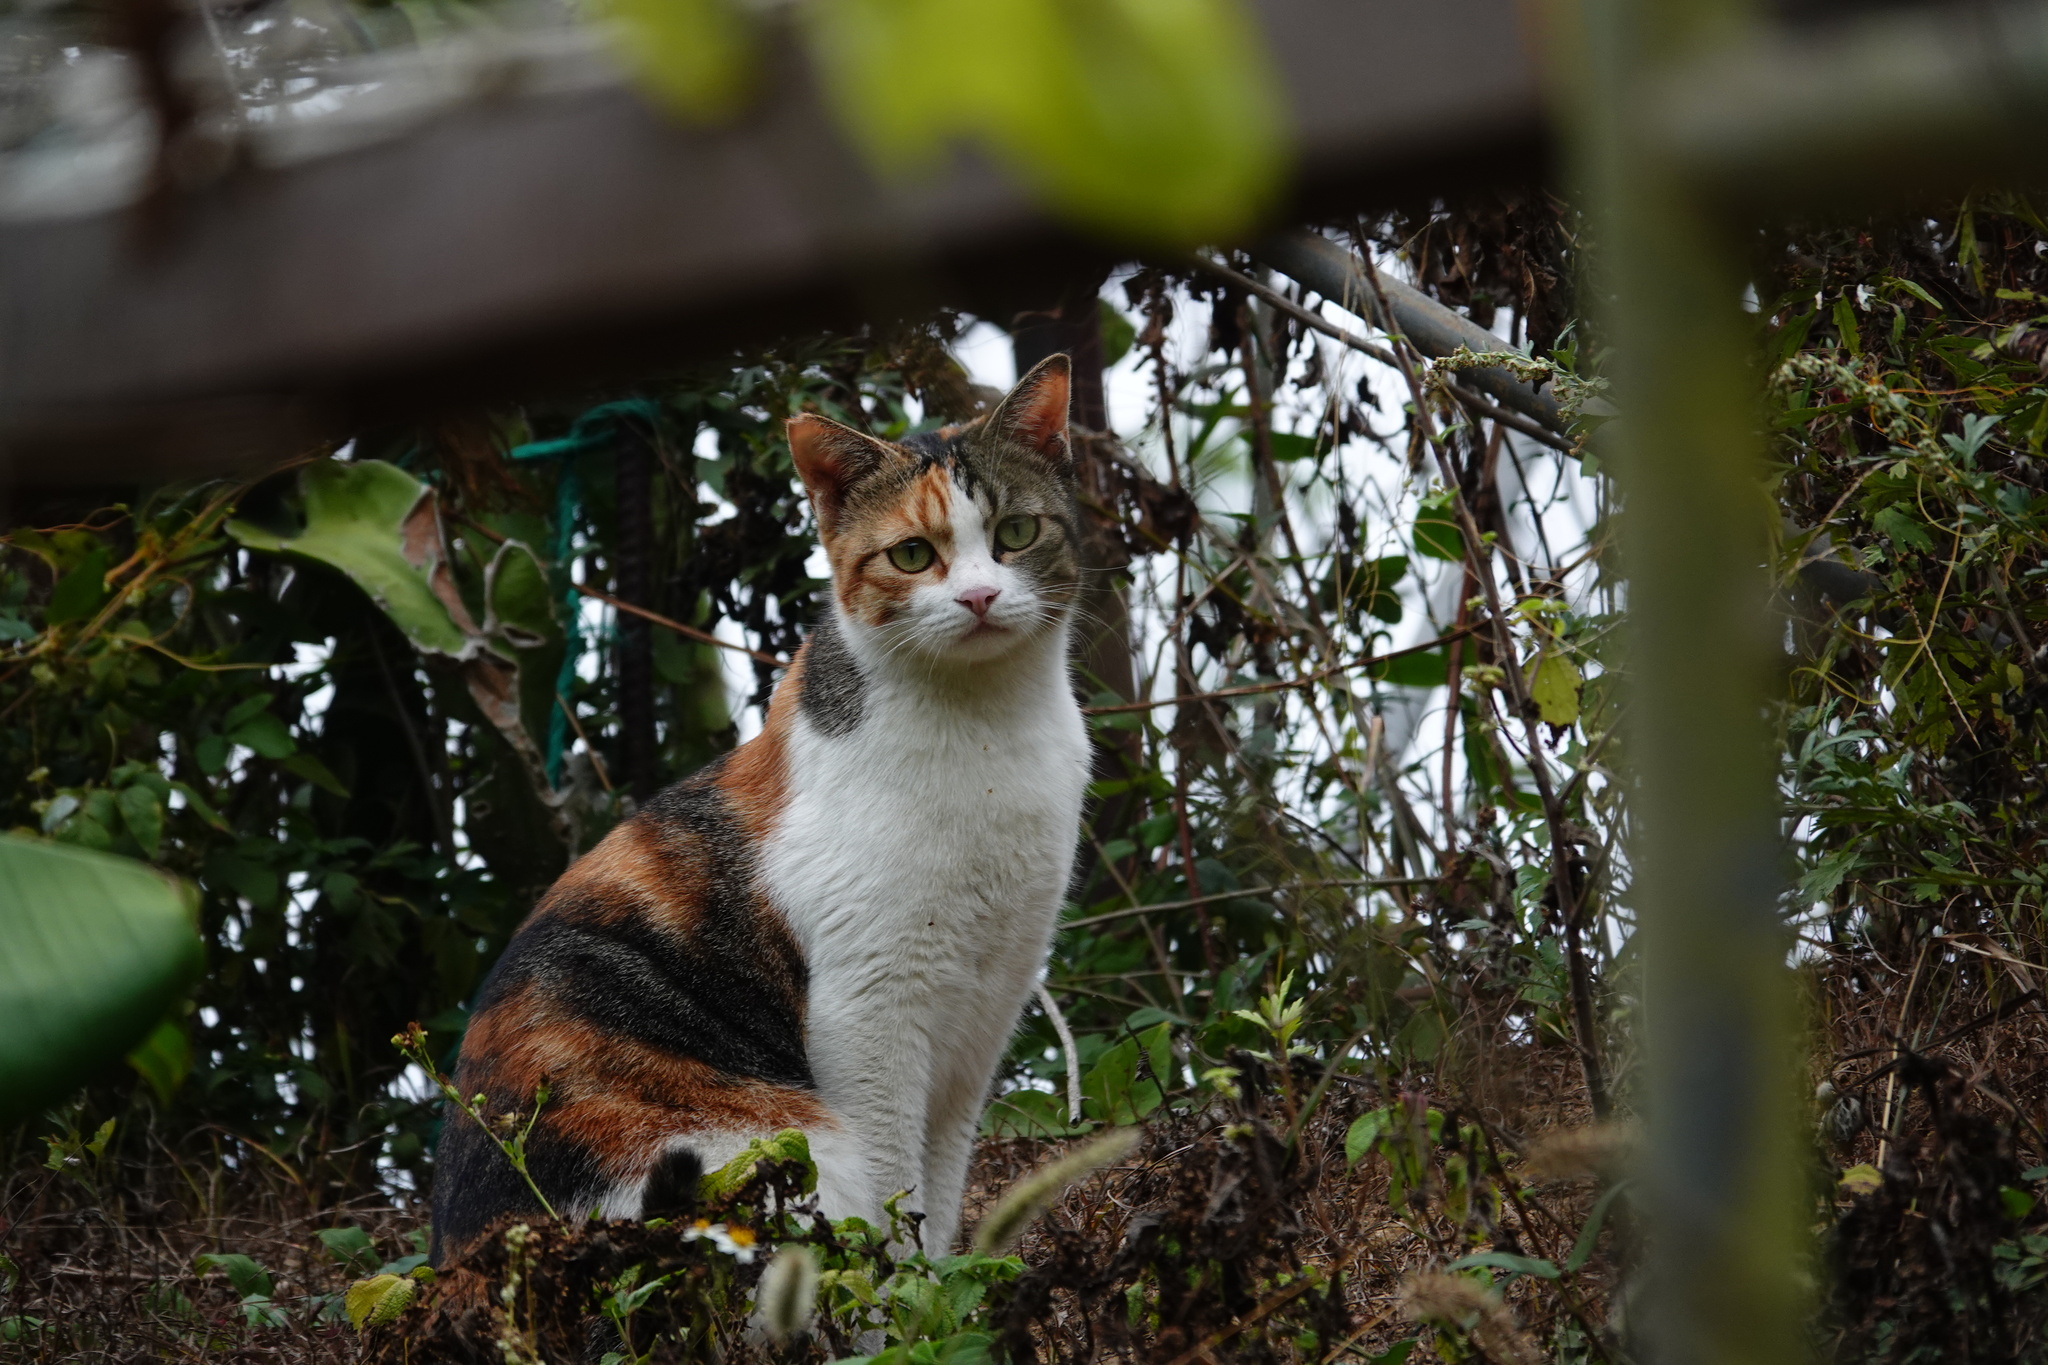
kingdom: Animalia
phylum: Chordata
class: Mammalia
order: Carnivora
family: Felidae
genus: Felis
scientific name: Felis catus
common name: Domestic cat
